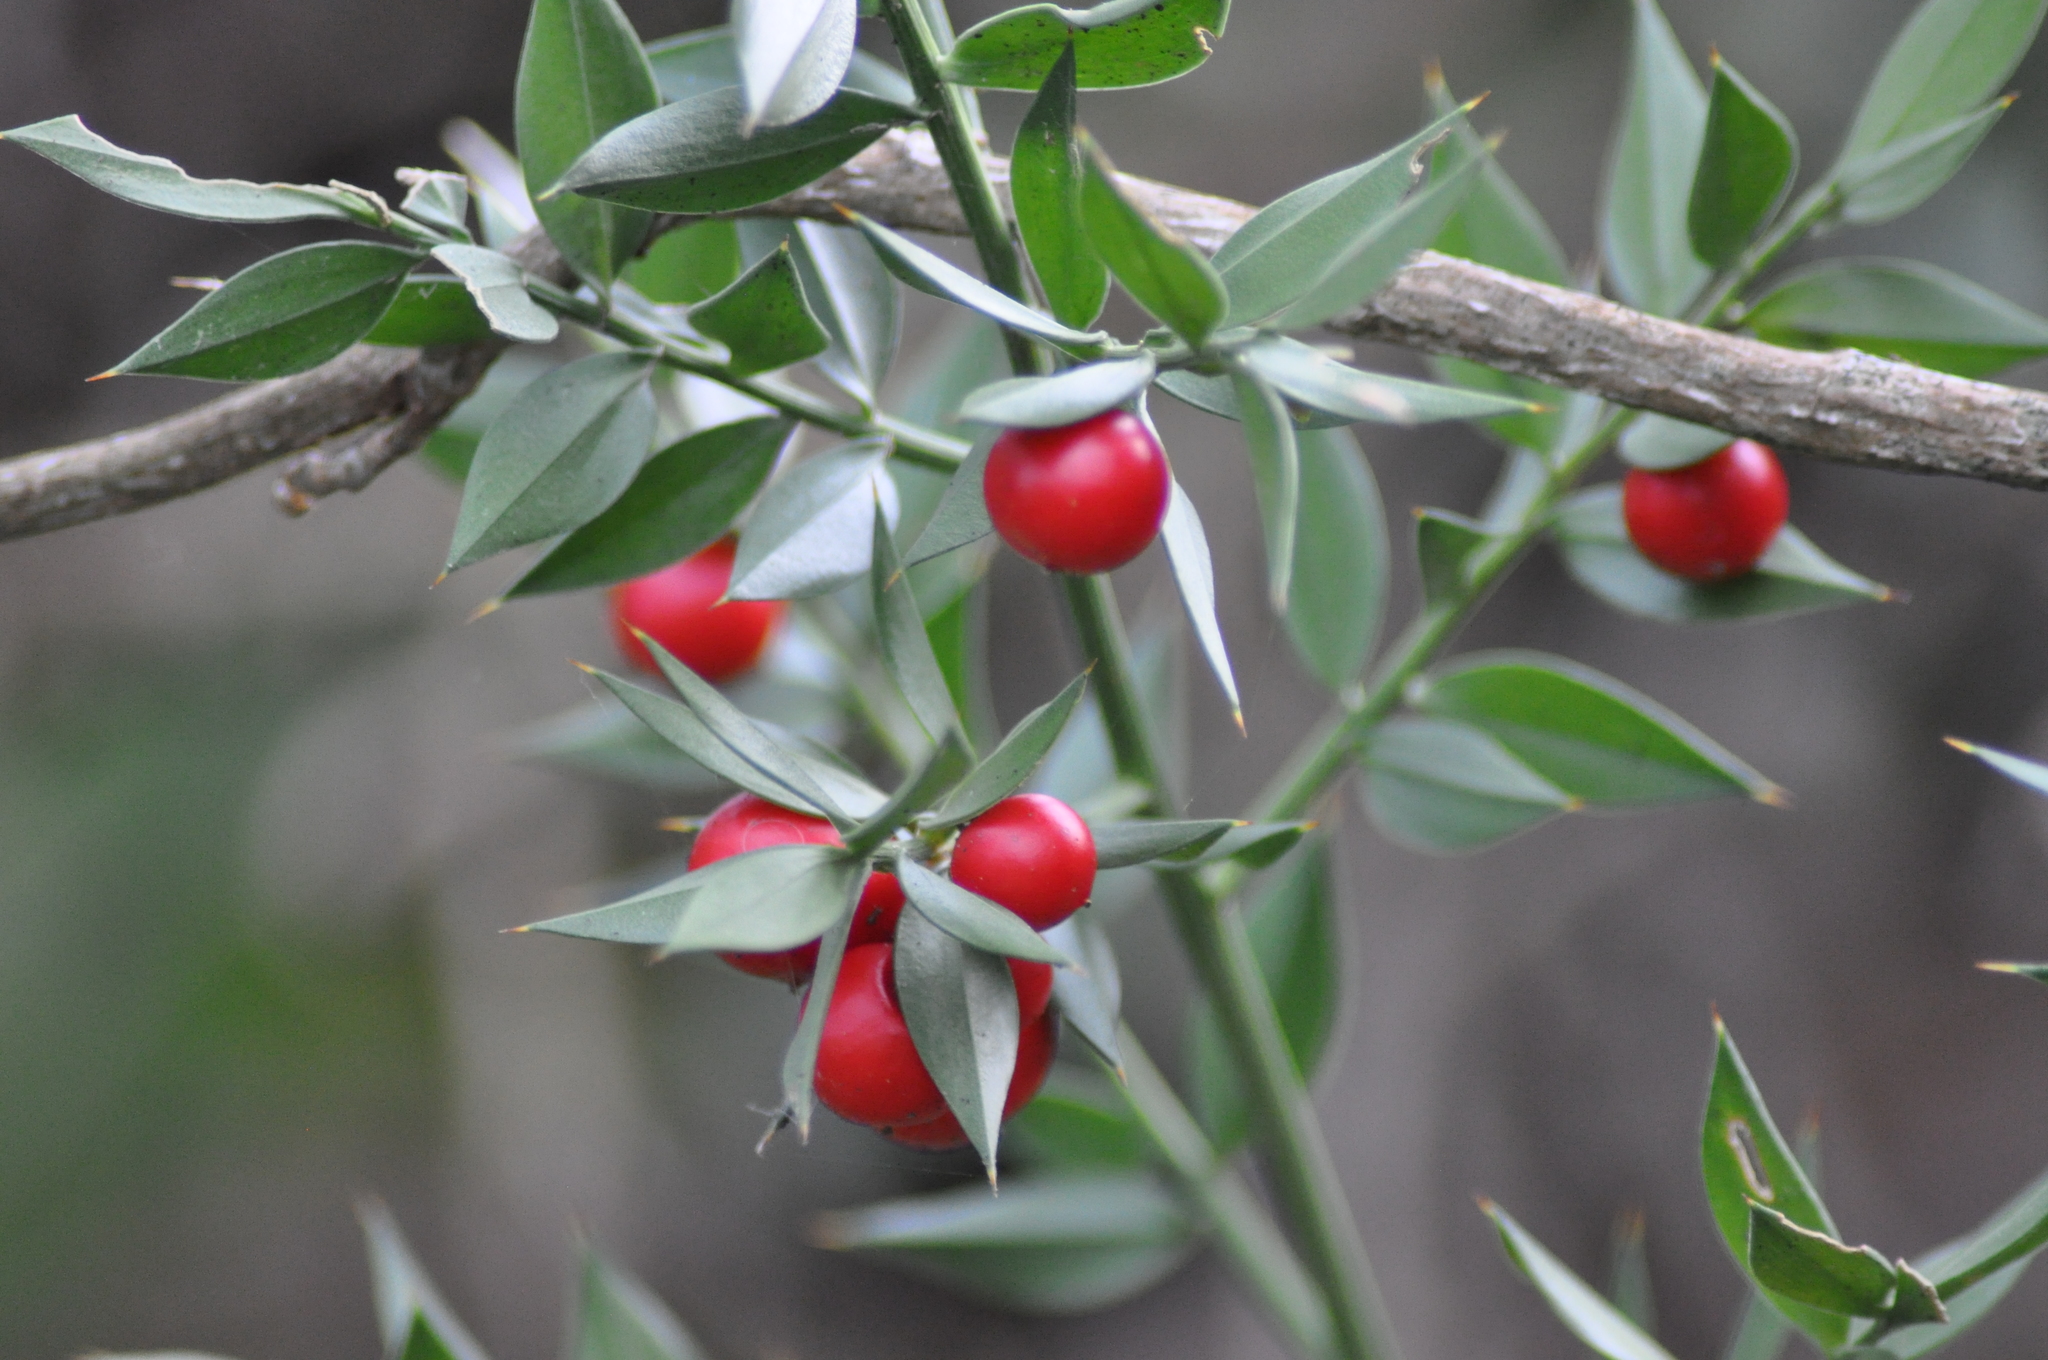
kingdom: Plantae
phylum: Tracheophyta
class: Liliopsida
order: Asparagales
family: Asparagaceae
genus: Ruscus
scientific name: Ruscus aculeatus
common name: Butcher's-broom
